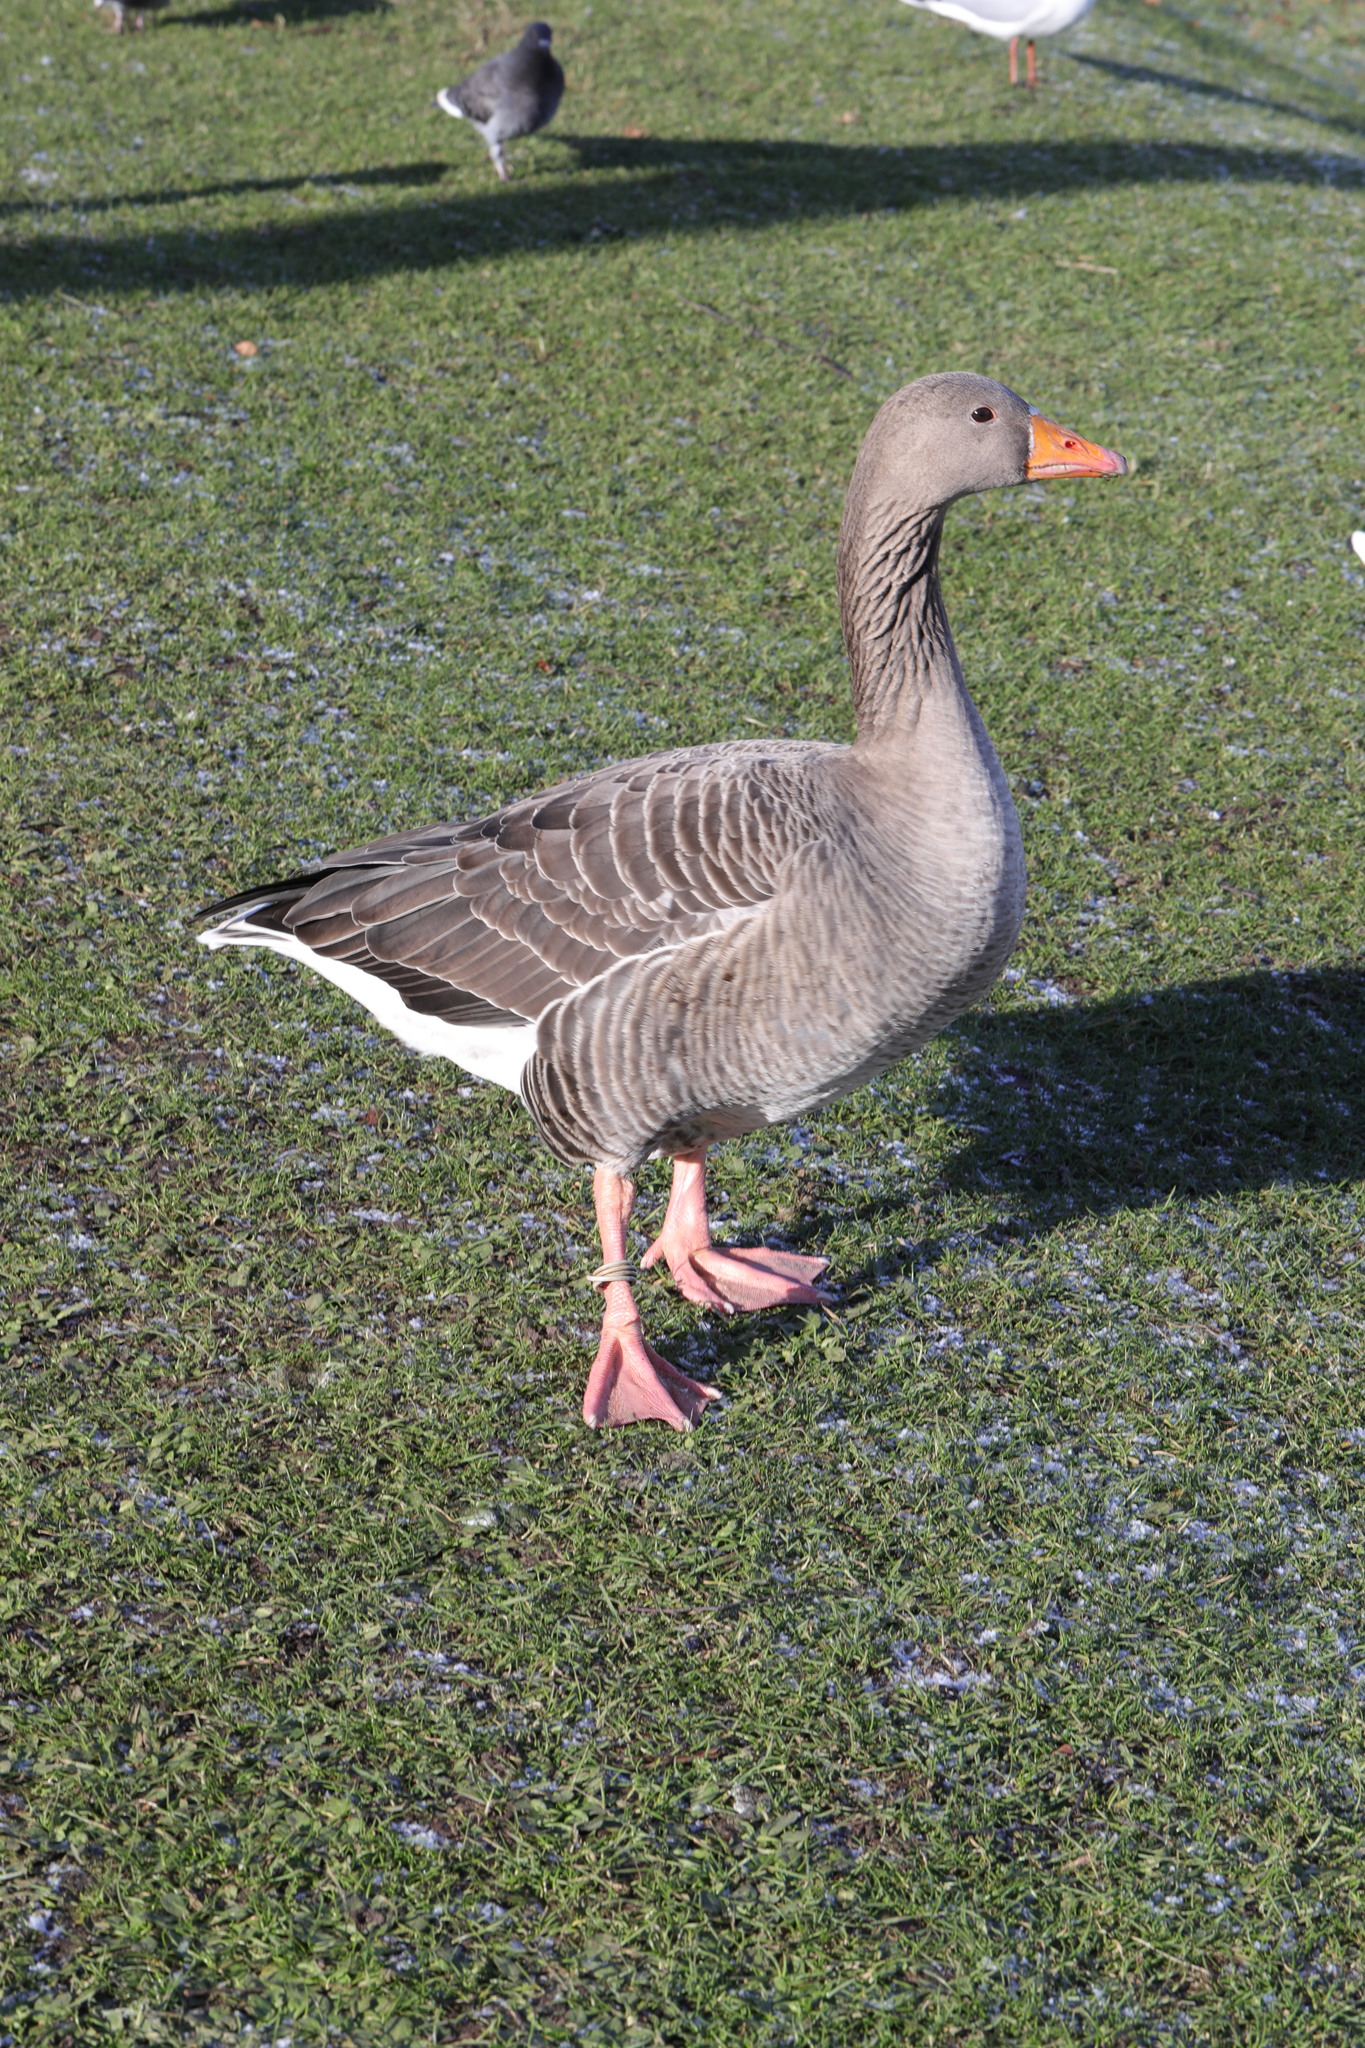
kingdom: Animalia
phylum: Chordata
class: Aves
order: Anseriformes
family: Anatidae
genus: Anser
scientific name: Anser anser
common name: Greylag goose
